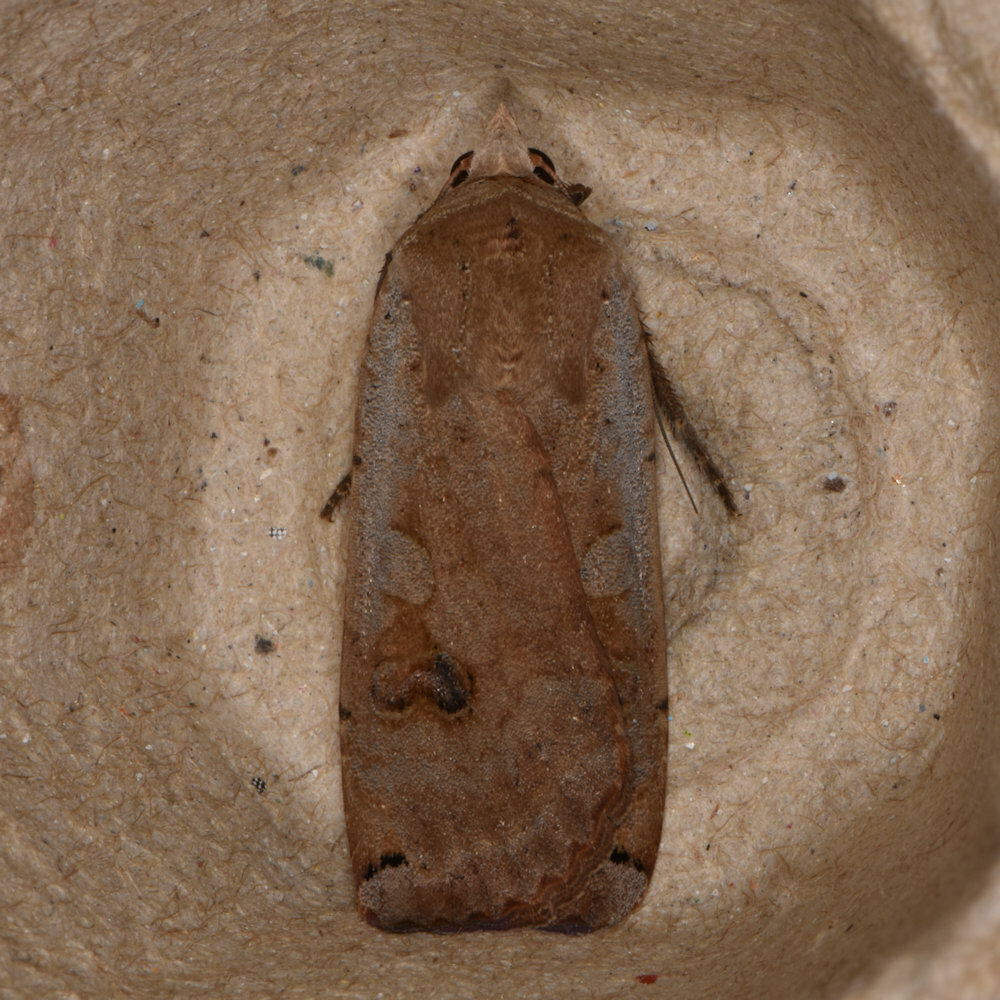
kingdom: Animalia
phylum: Arthropoda
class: Insecta
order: Lepidoptera
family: Noctuidae
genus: Noctua
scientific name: Noctua pronuba
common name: Large yellow underwing
